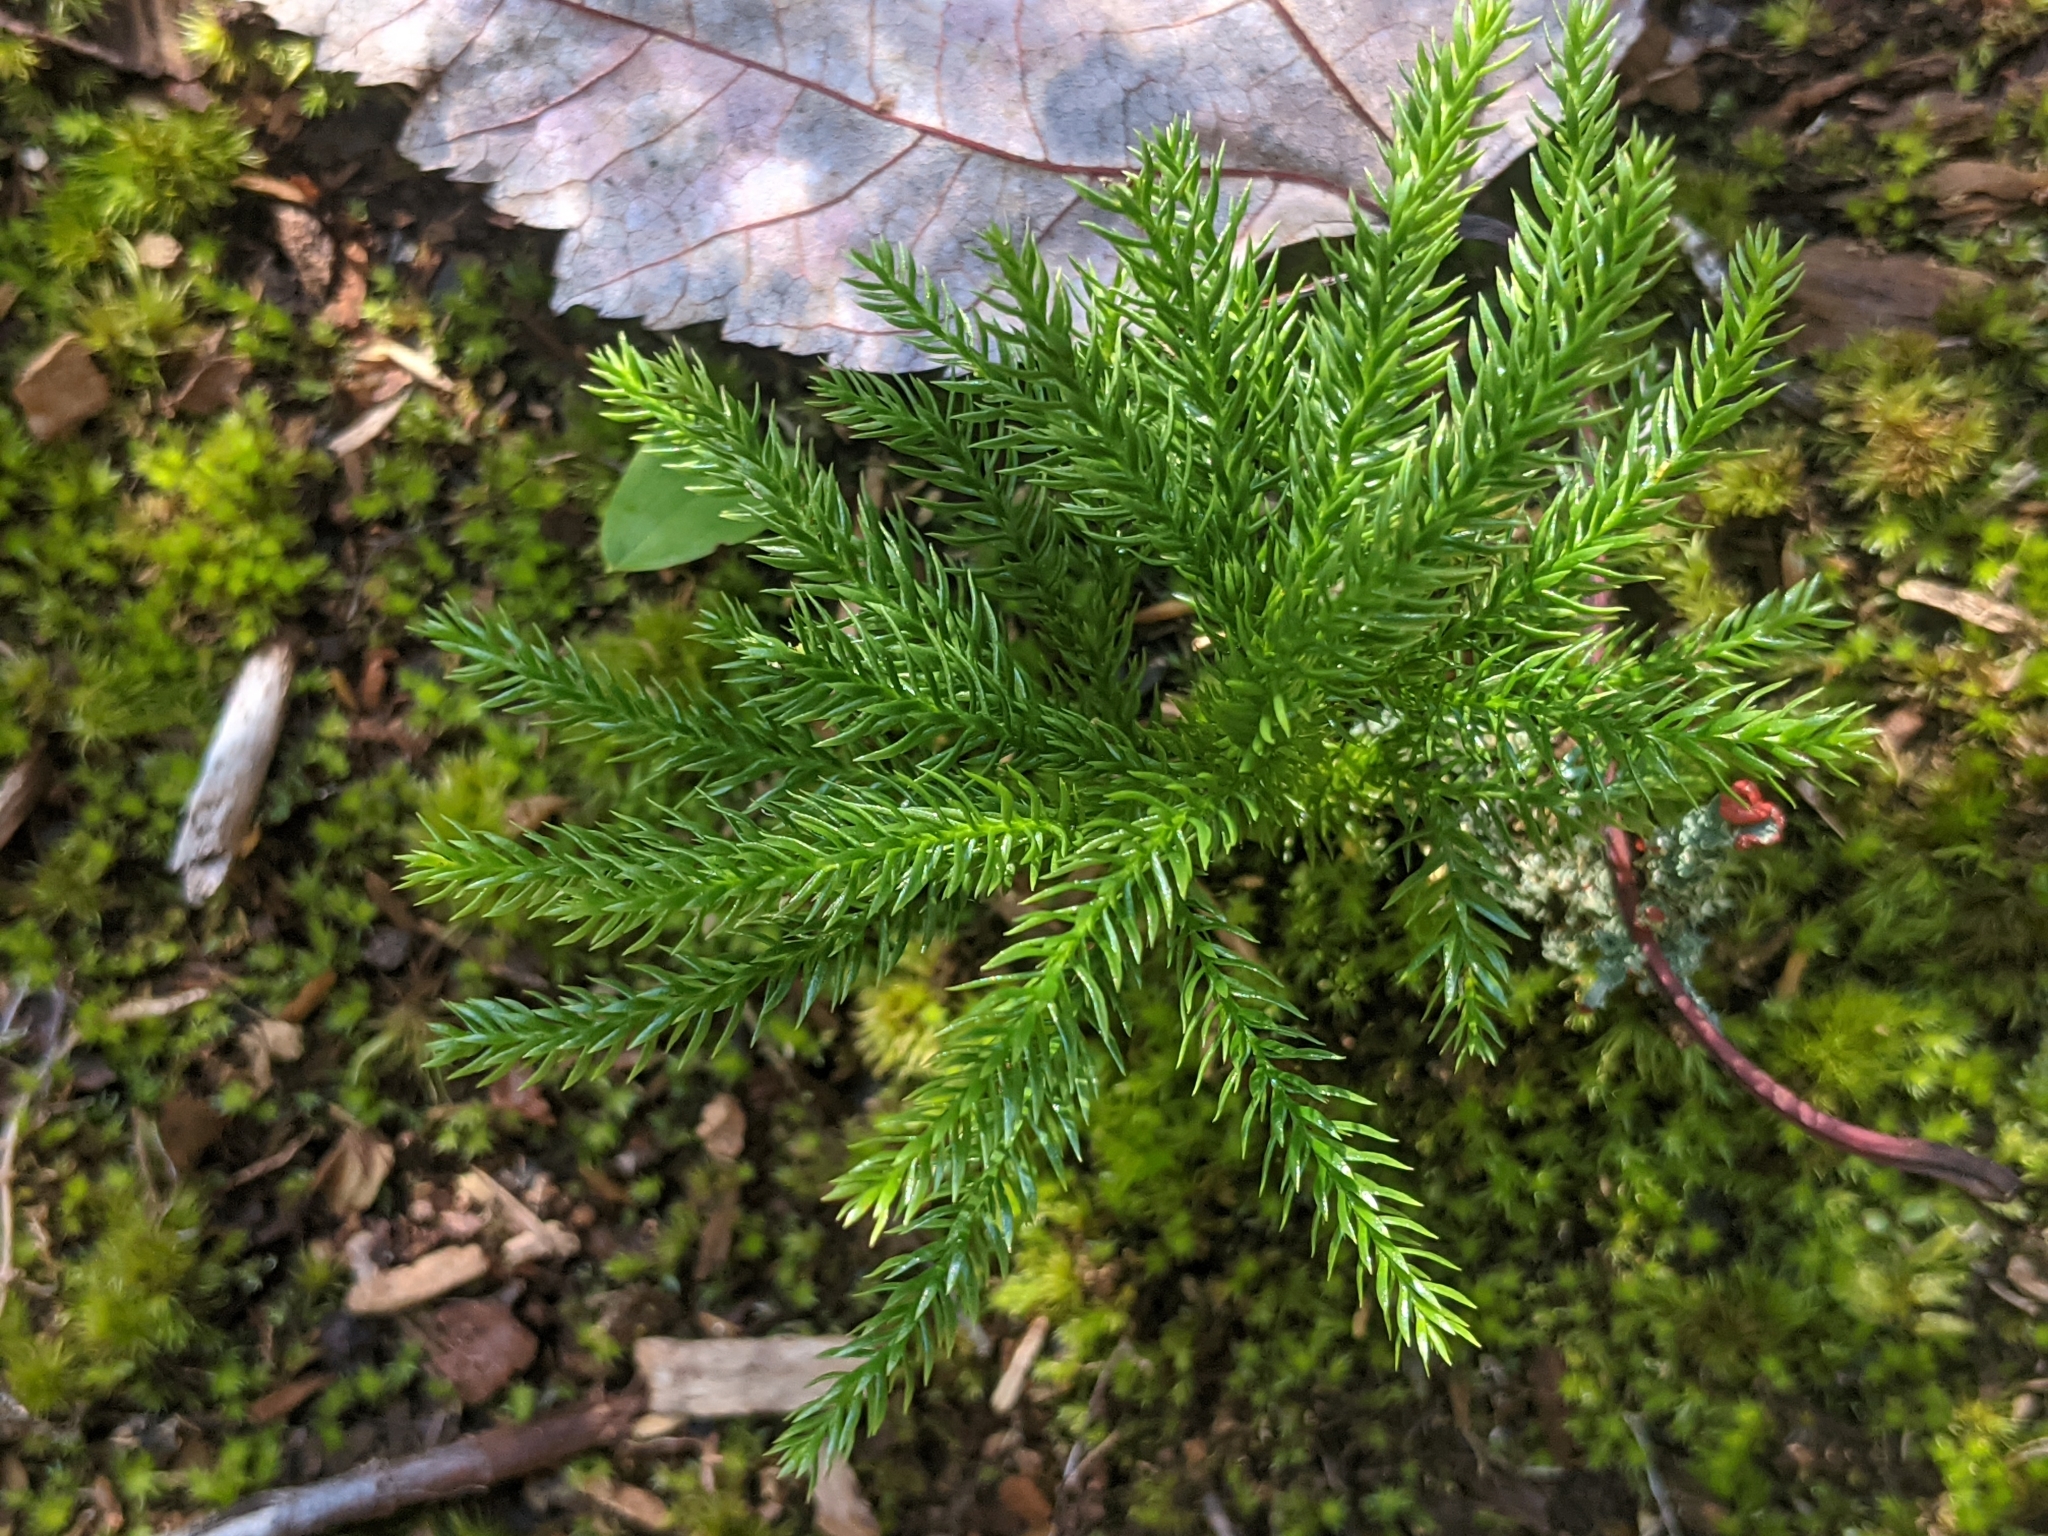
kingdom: Plantae
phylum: Tracheophyta
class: Lycopodiopsida
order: Lycopodiales
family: Lycopodiaceae
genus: Dendrolycopodium
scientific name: Dendrolycopodium dendroideum
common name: Northern tree-clubmoss
